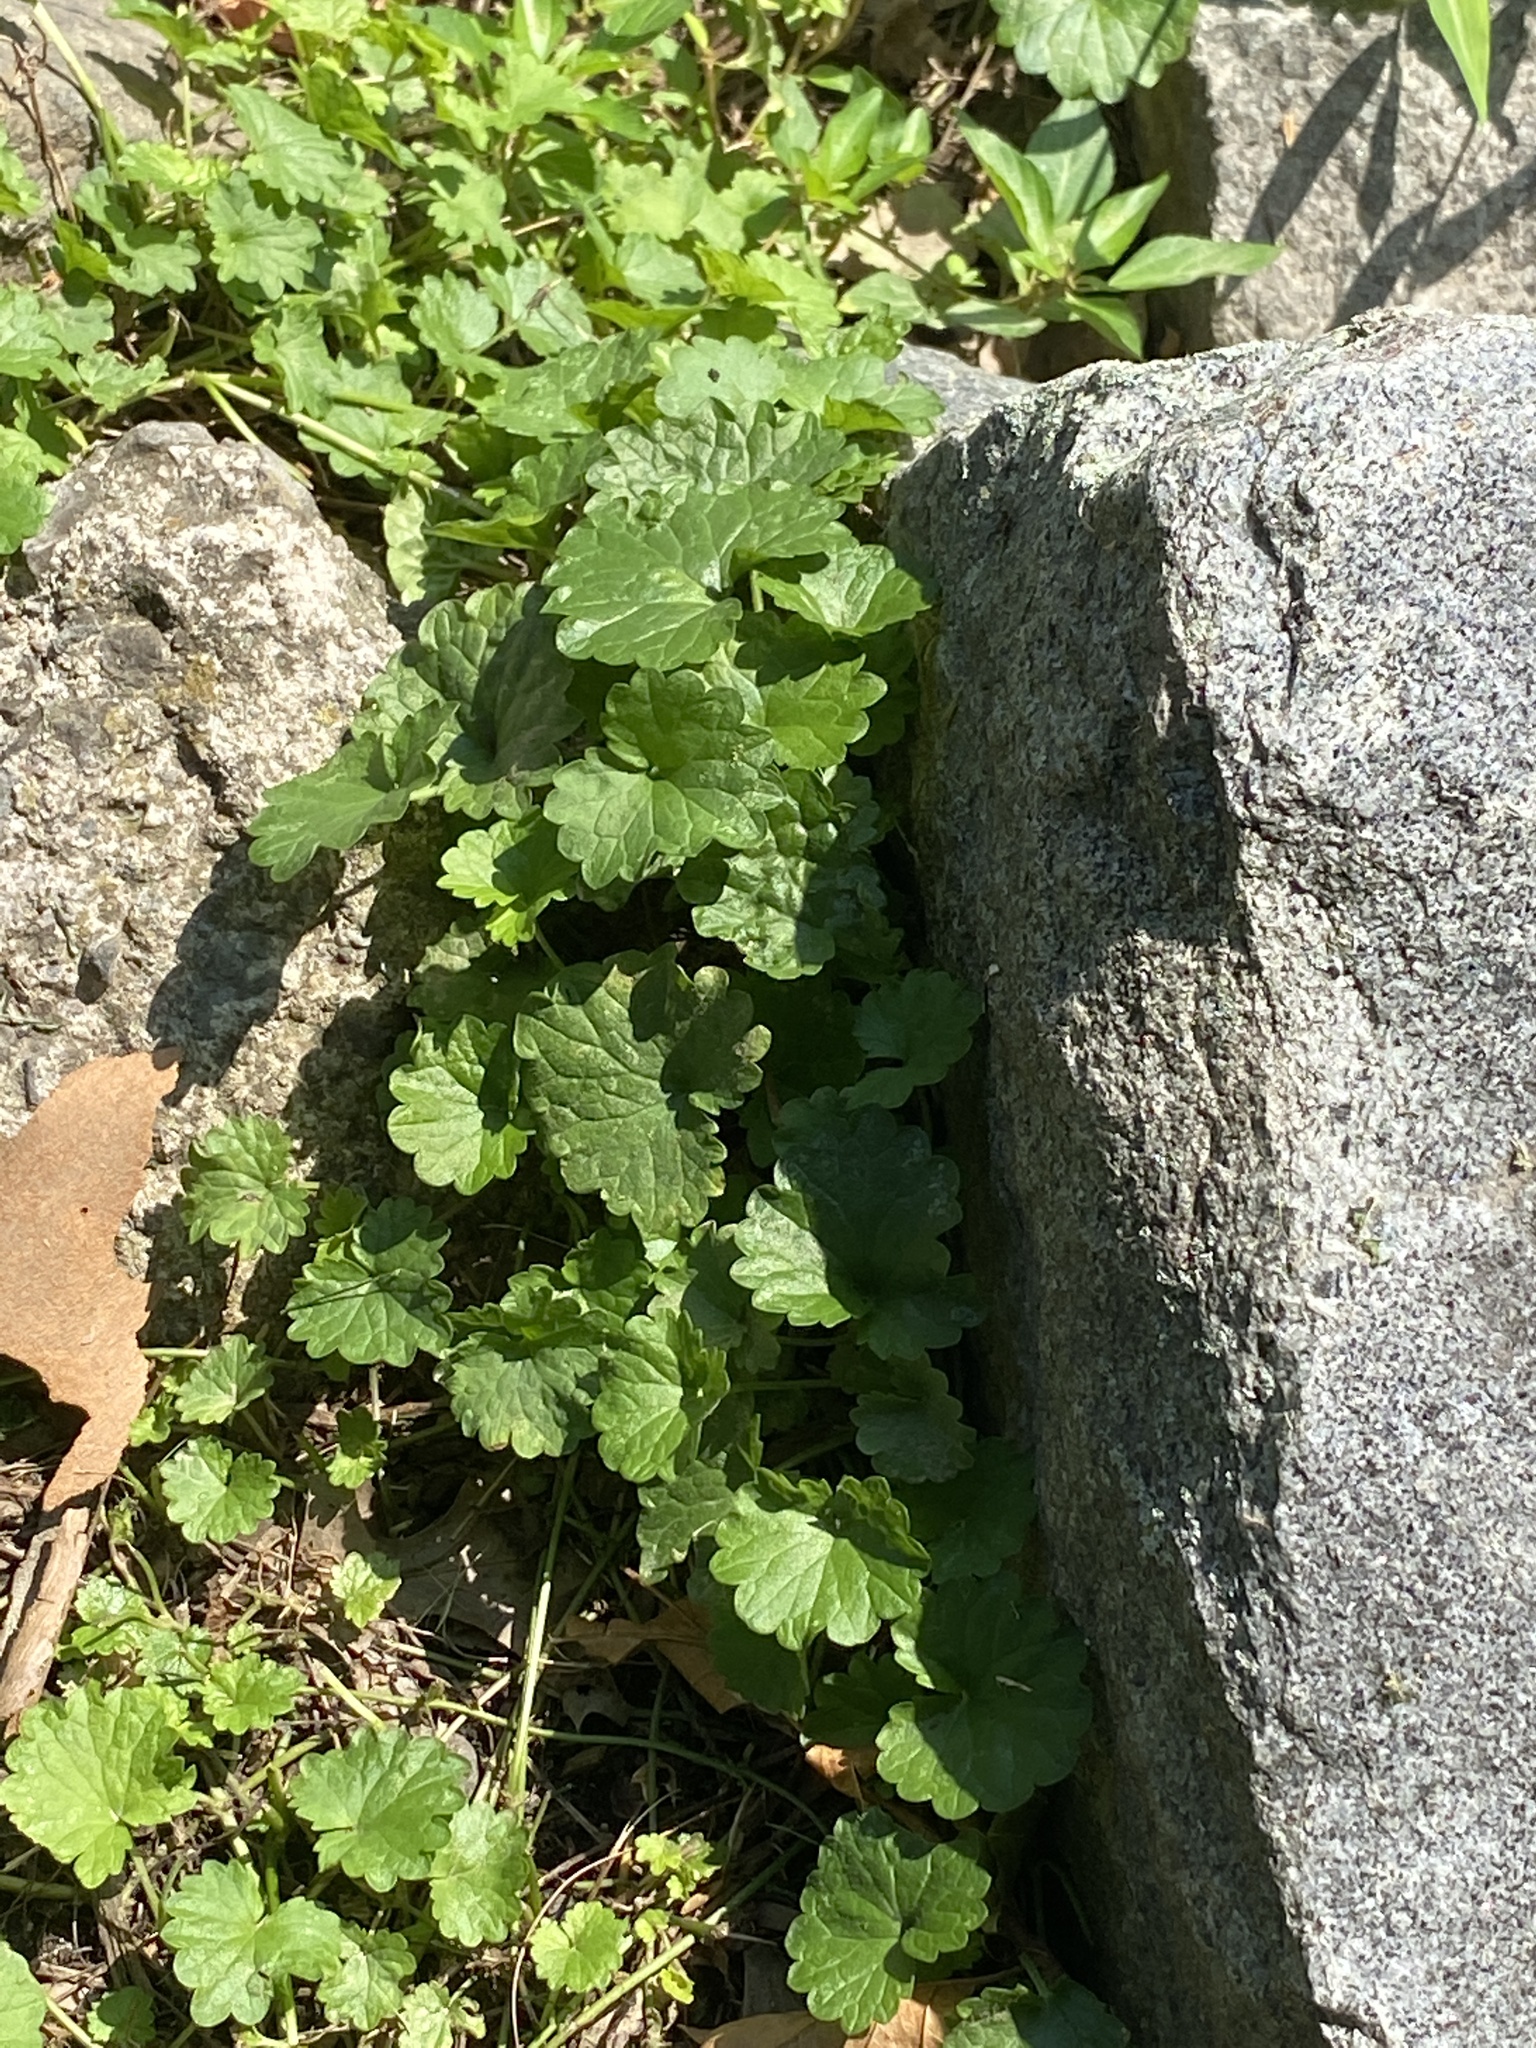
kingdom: Plantae
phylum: Tracheophyta
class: Magnoliopsida
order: Lamiales
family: Lamiaceae
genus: Glechoma
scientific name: Glechoma hederacea
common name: Ground ivy
